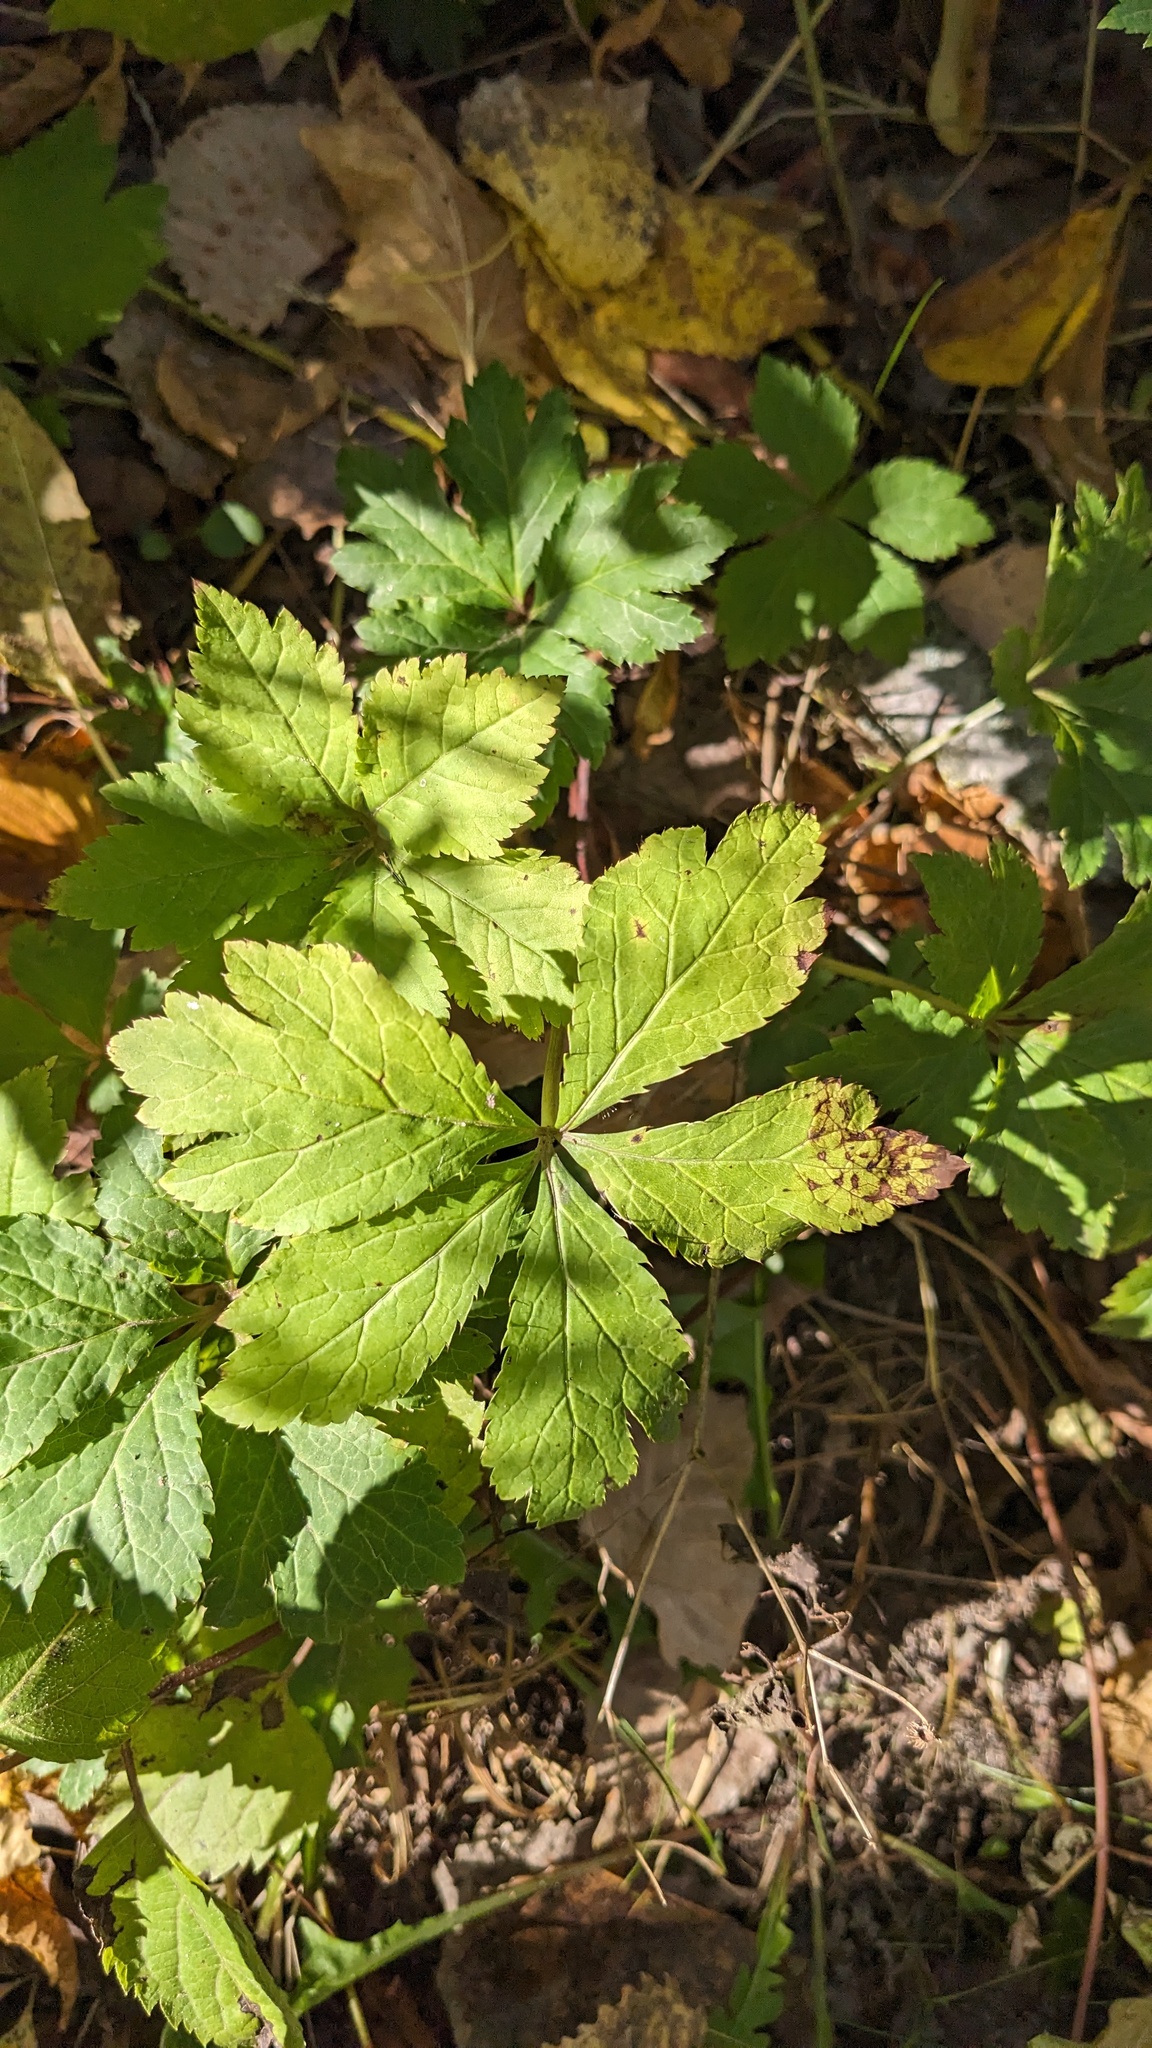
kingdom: Plantae
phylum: Tracheophyta
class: Magnoliopsida
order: Apiales
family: Apiaceae
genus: Sanicula
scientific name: Sanicula canadensis
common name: Canada sanicle
